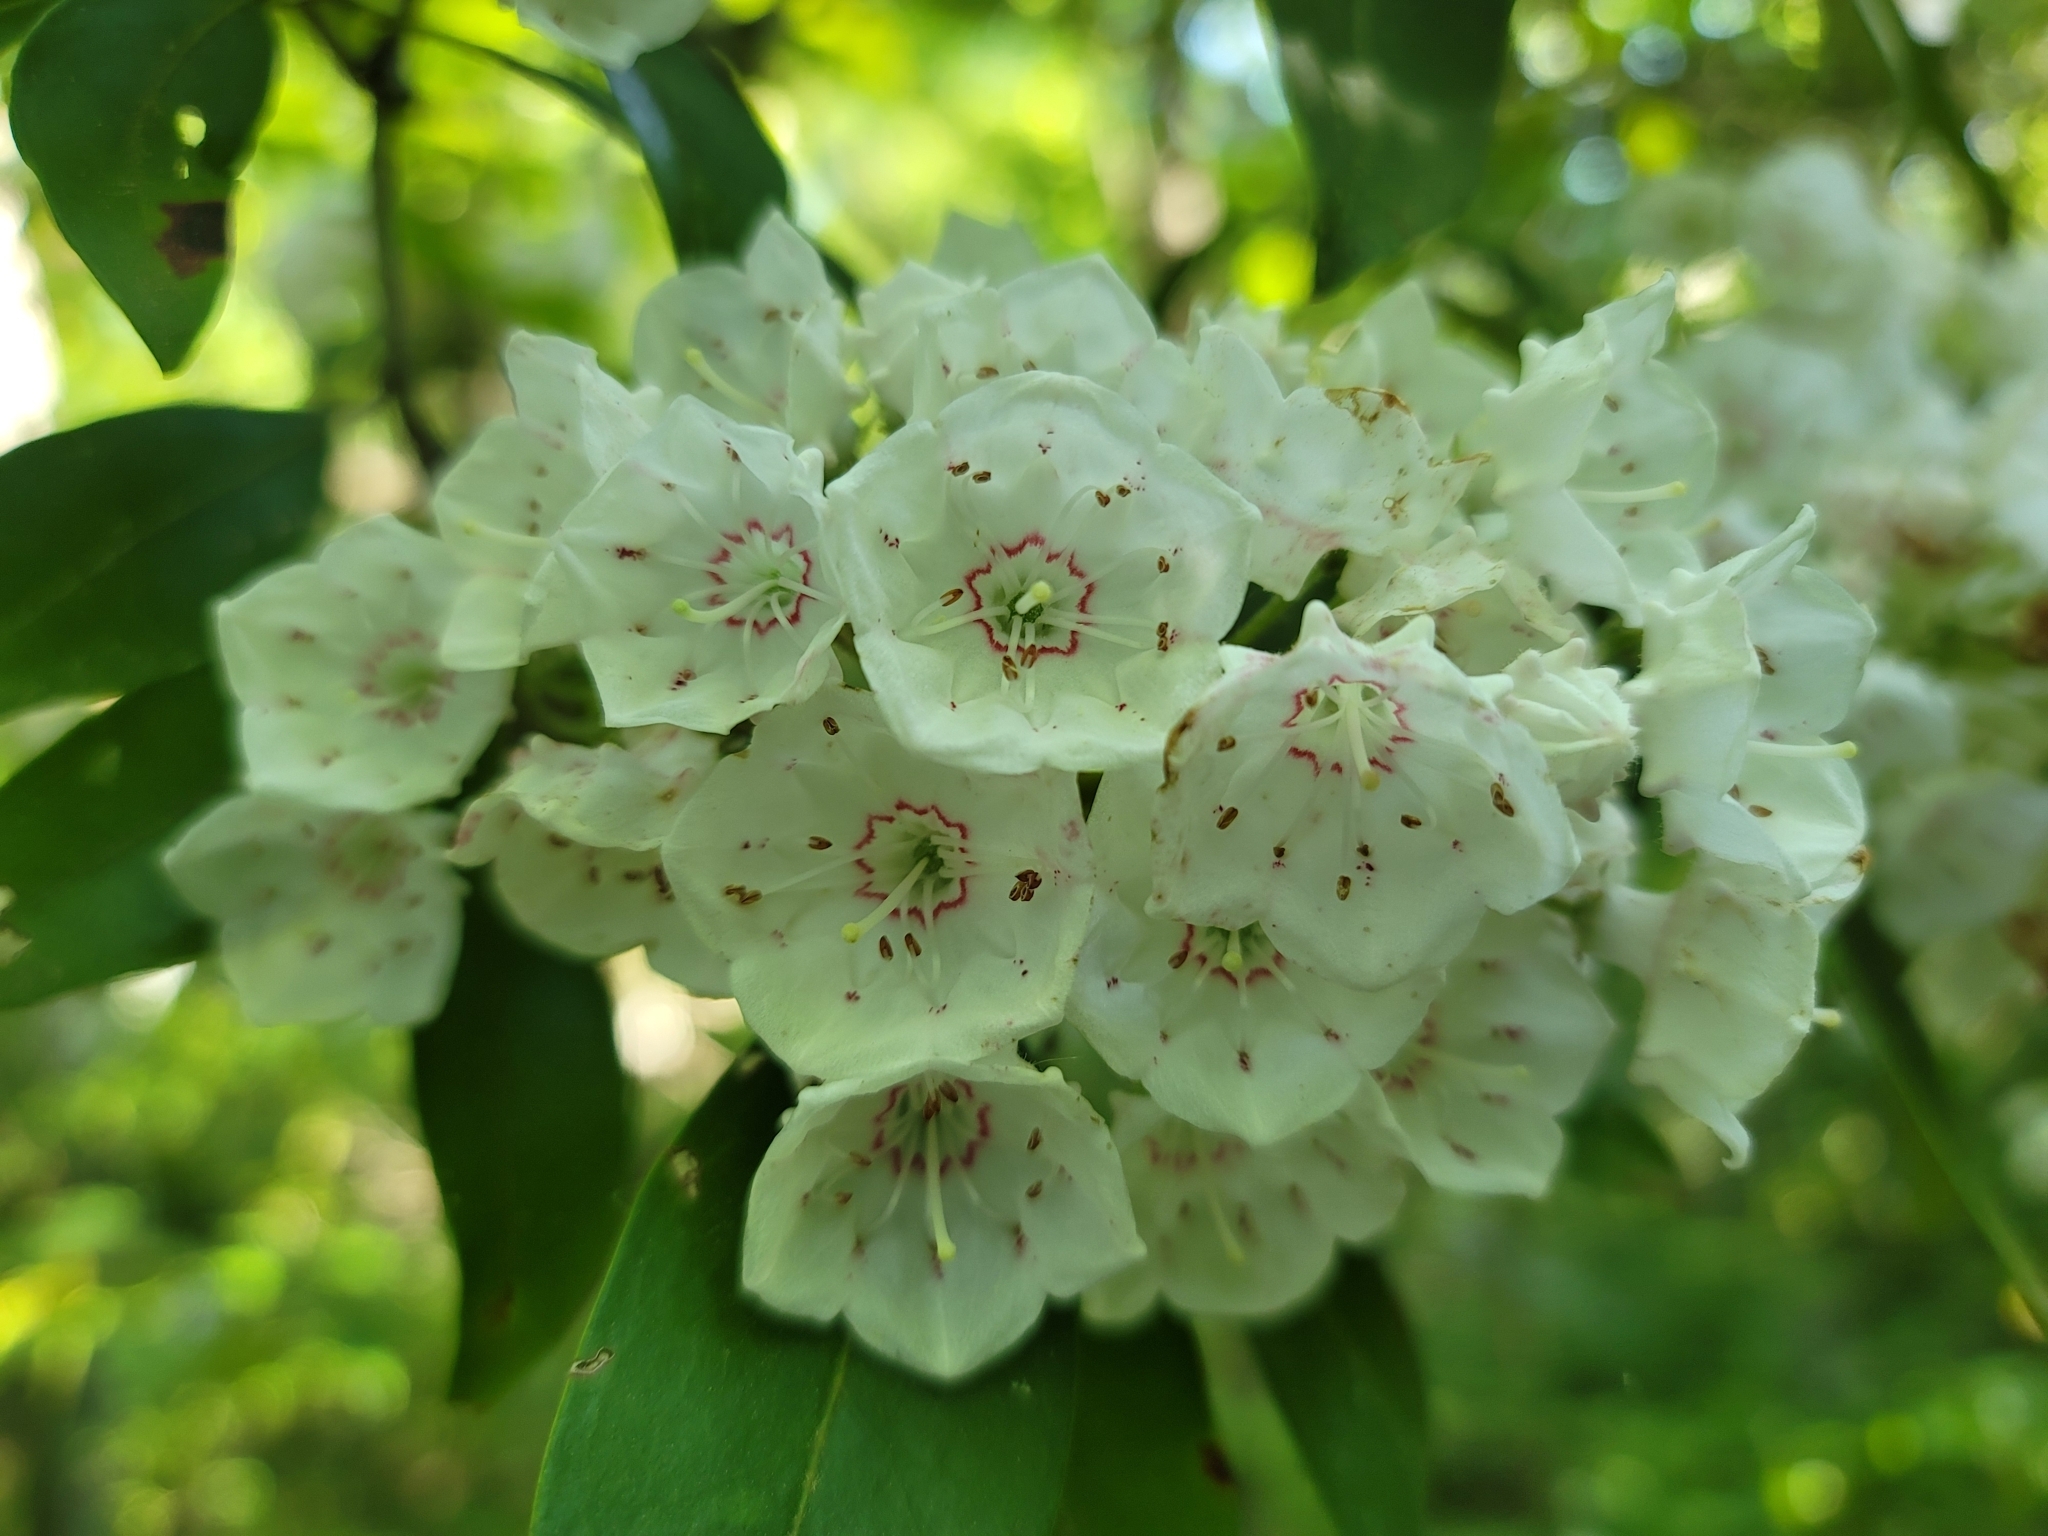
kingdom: Plantae
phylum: Tracheophyta
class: Magnoliopsida
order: Ericales
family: Ericaceae
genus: Kalmia
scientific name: Kalmia latifolia
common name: Mountain-laurel
